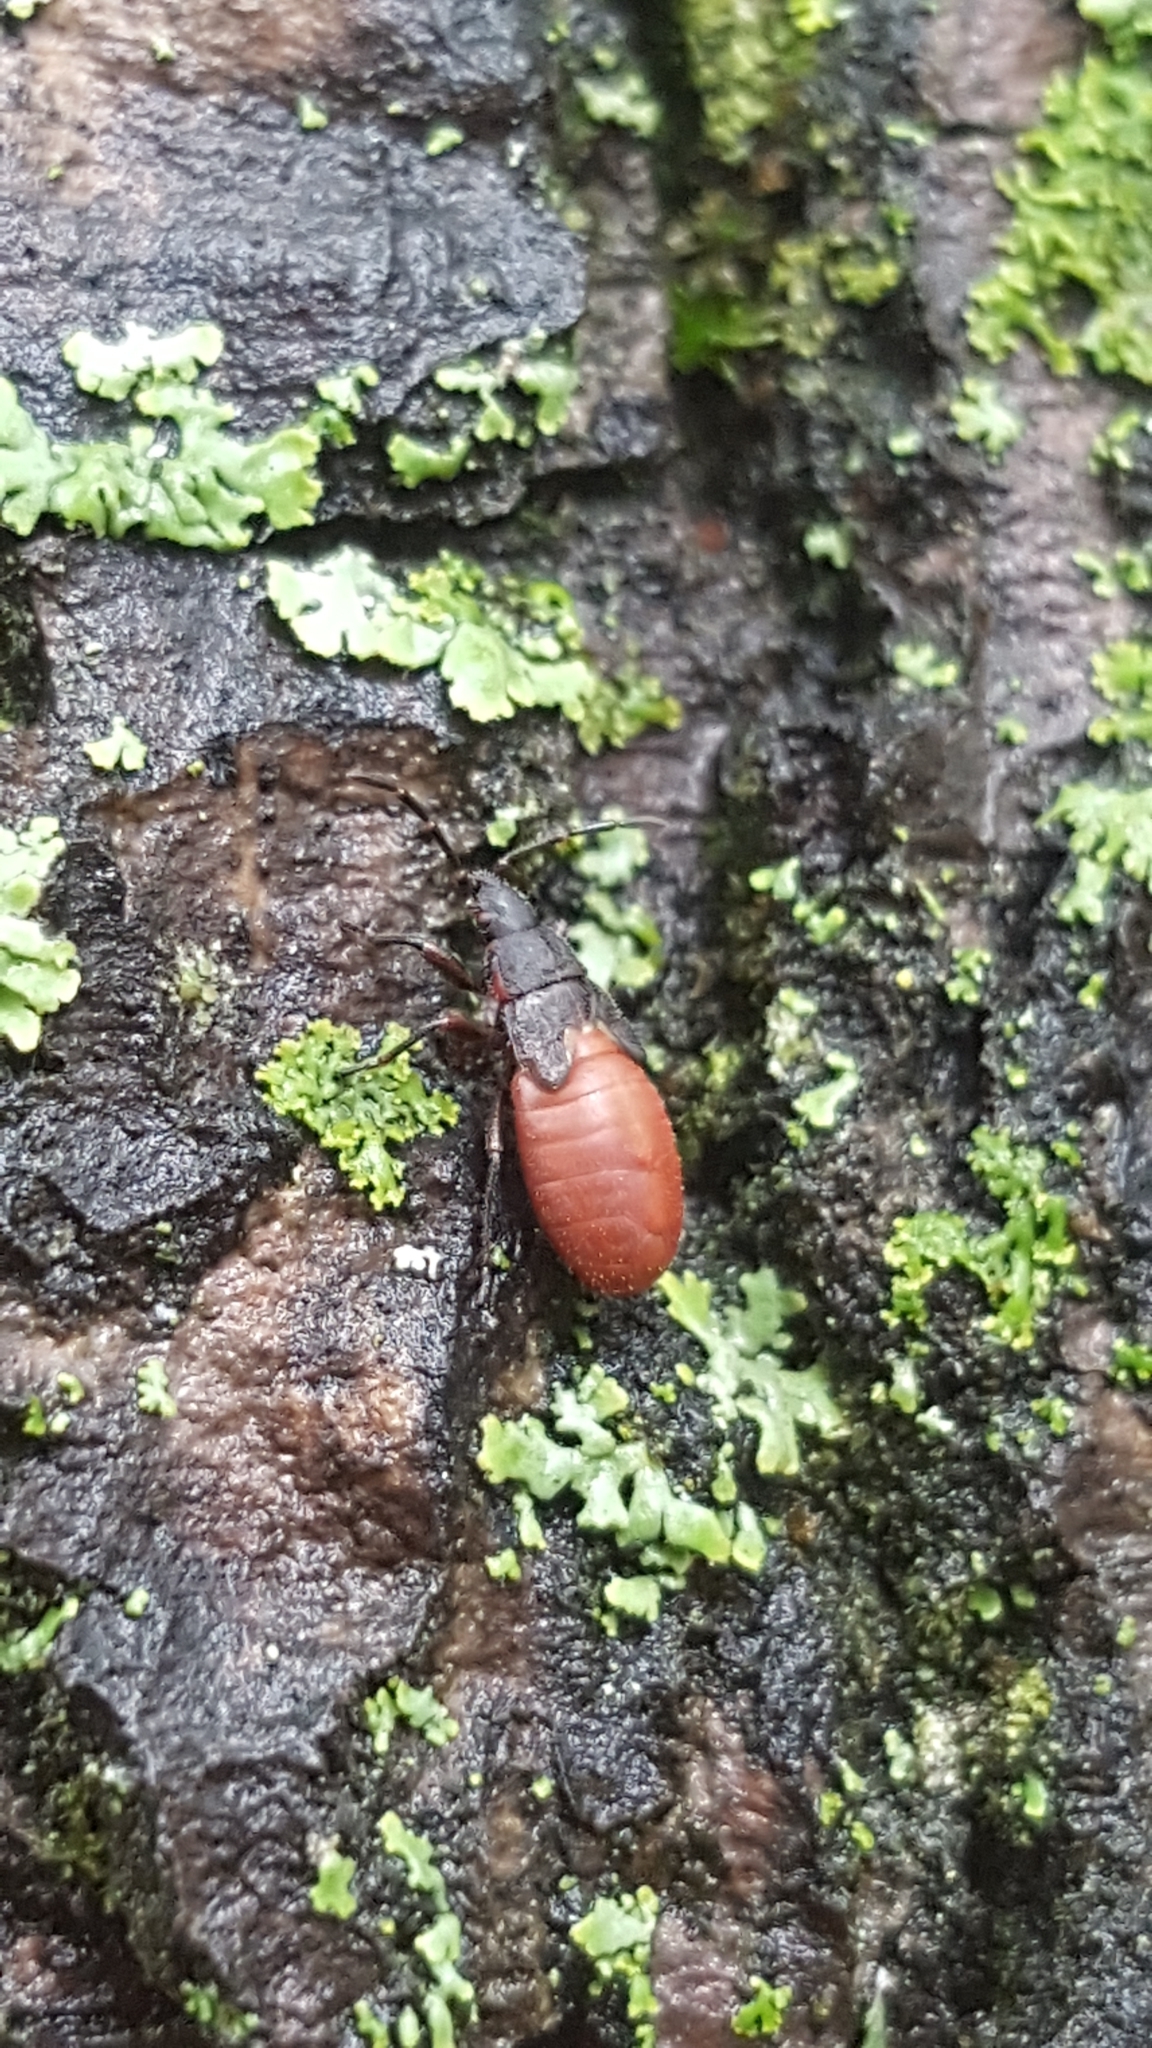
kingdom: Animalia
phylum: Arthropoda
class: Insecta
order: Hemiptera
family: Oxycarenidae
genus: Oxycarenus
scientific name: Oxycarenus lavaterae
